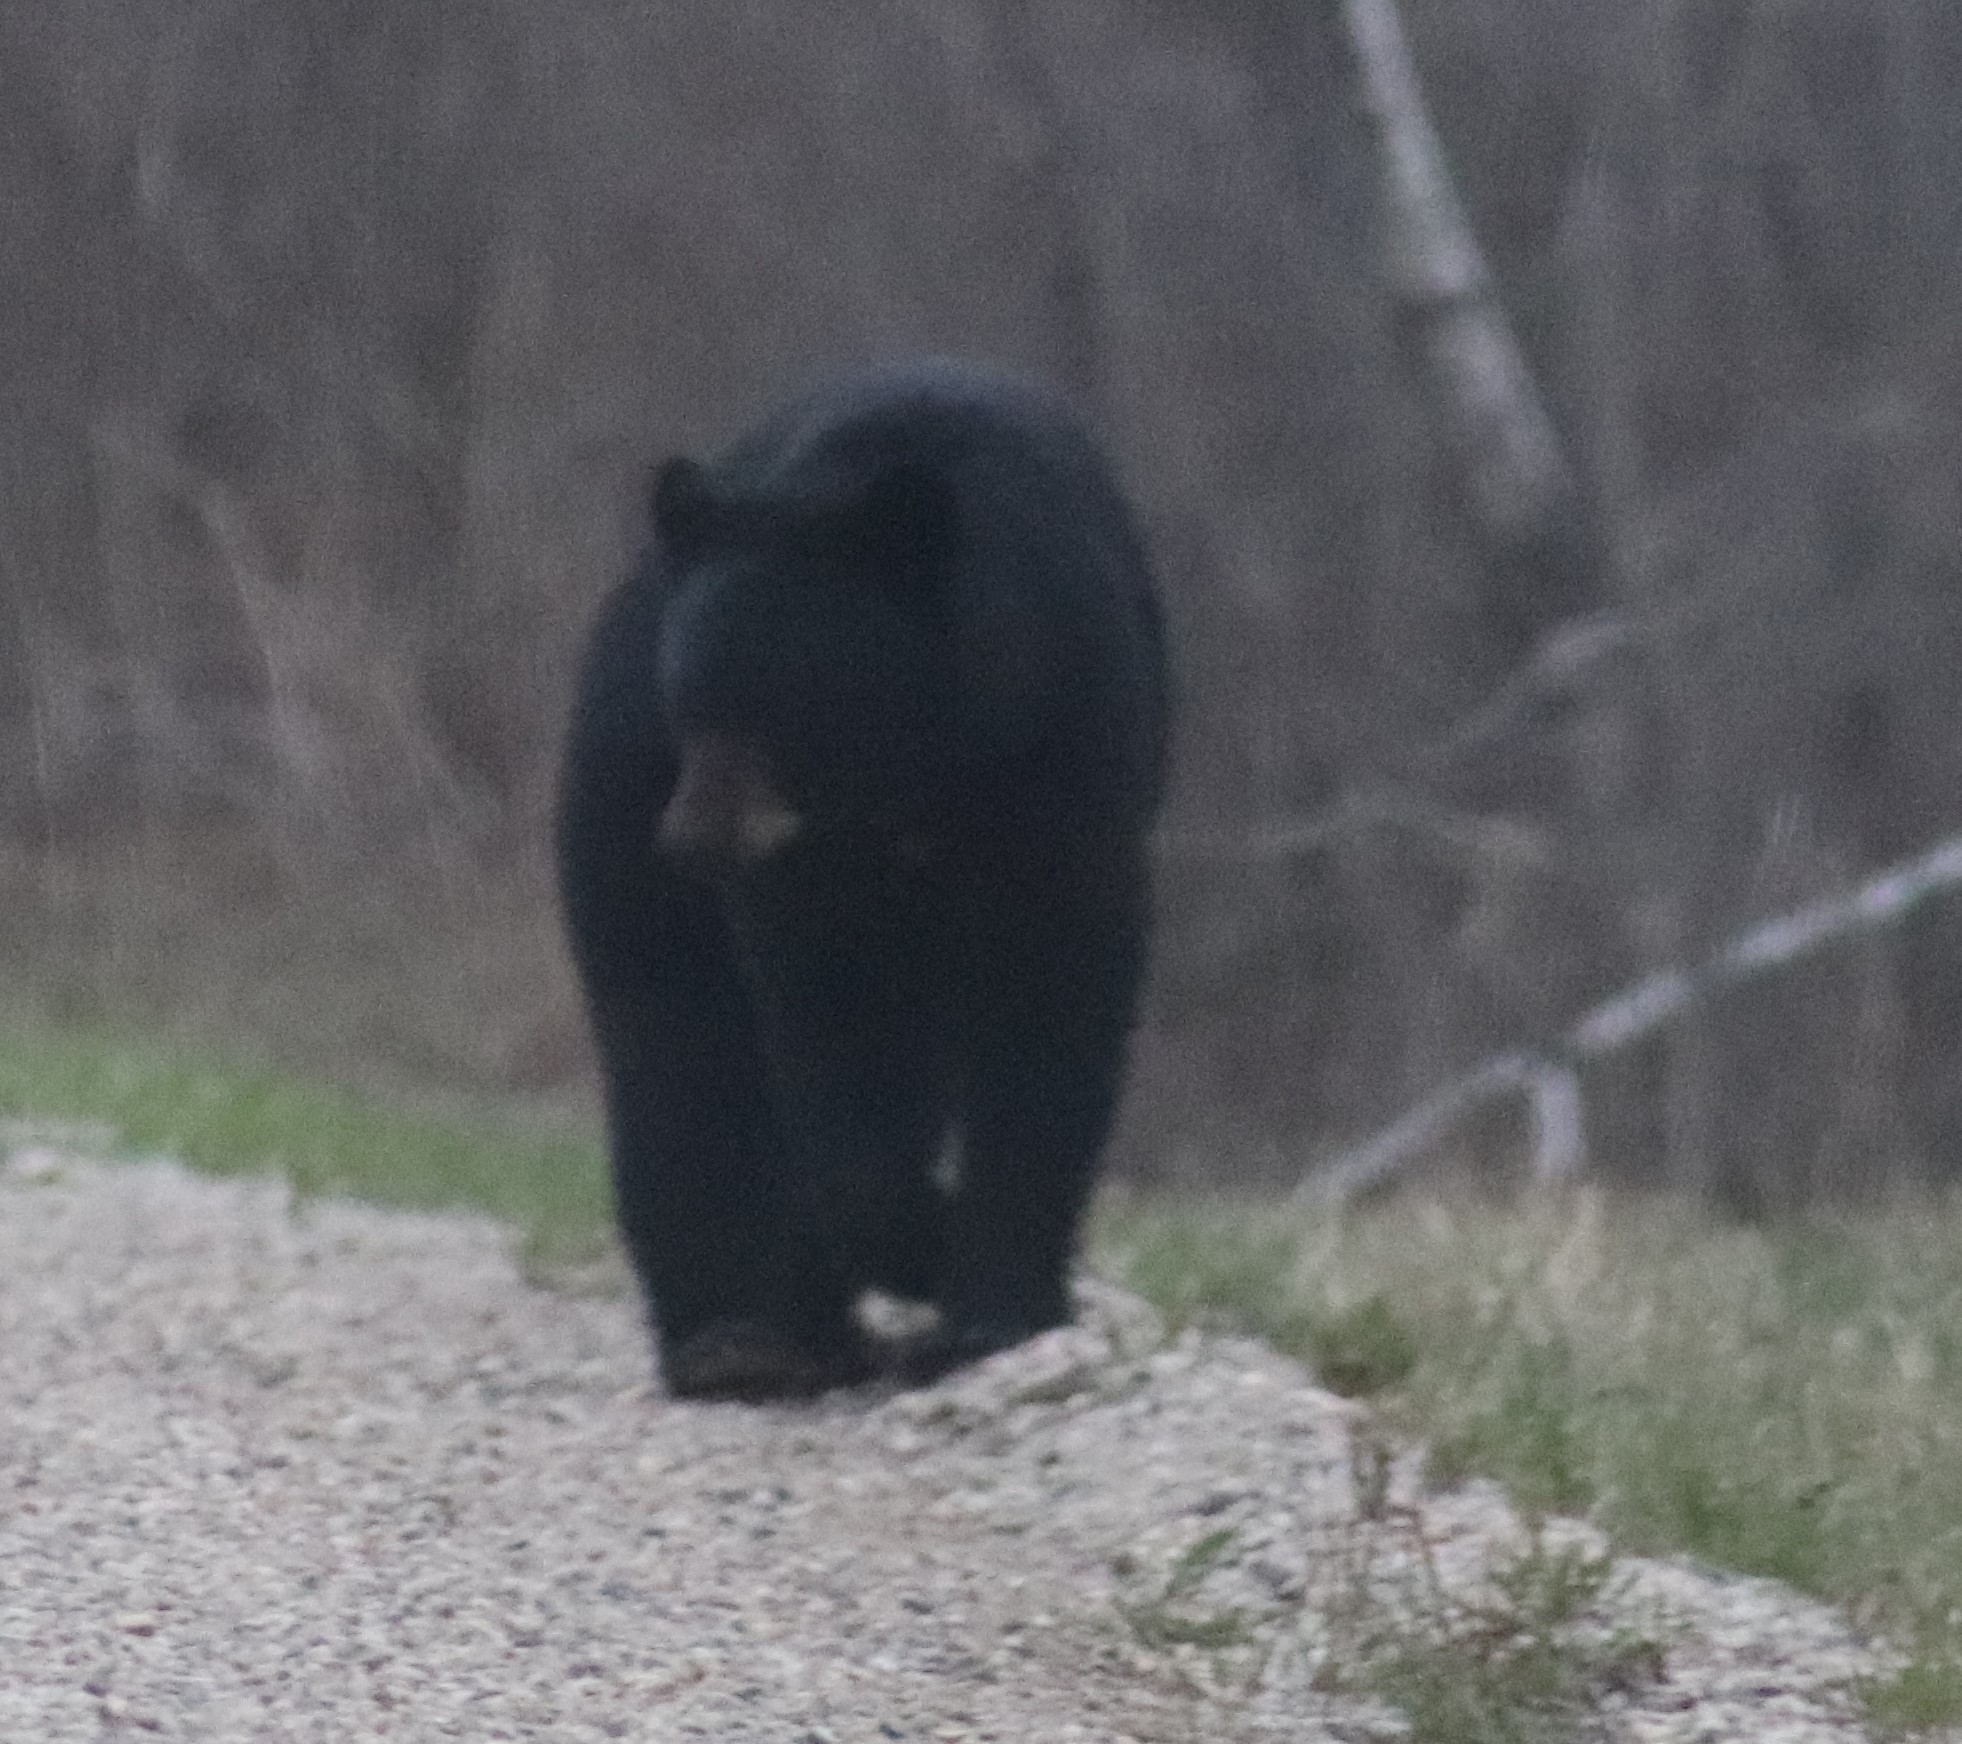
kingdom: Animalia
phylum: Chordata
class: Mammalia
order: Carnivora
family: Ursidae
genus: Ursus
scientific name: Ursus americanus
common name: American black bear
